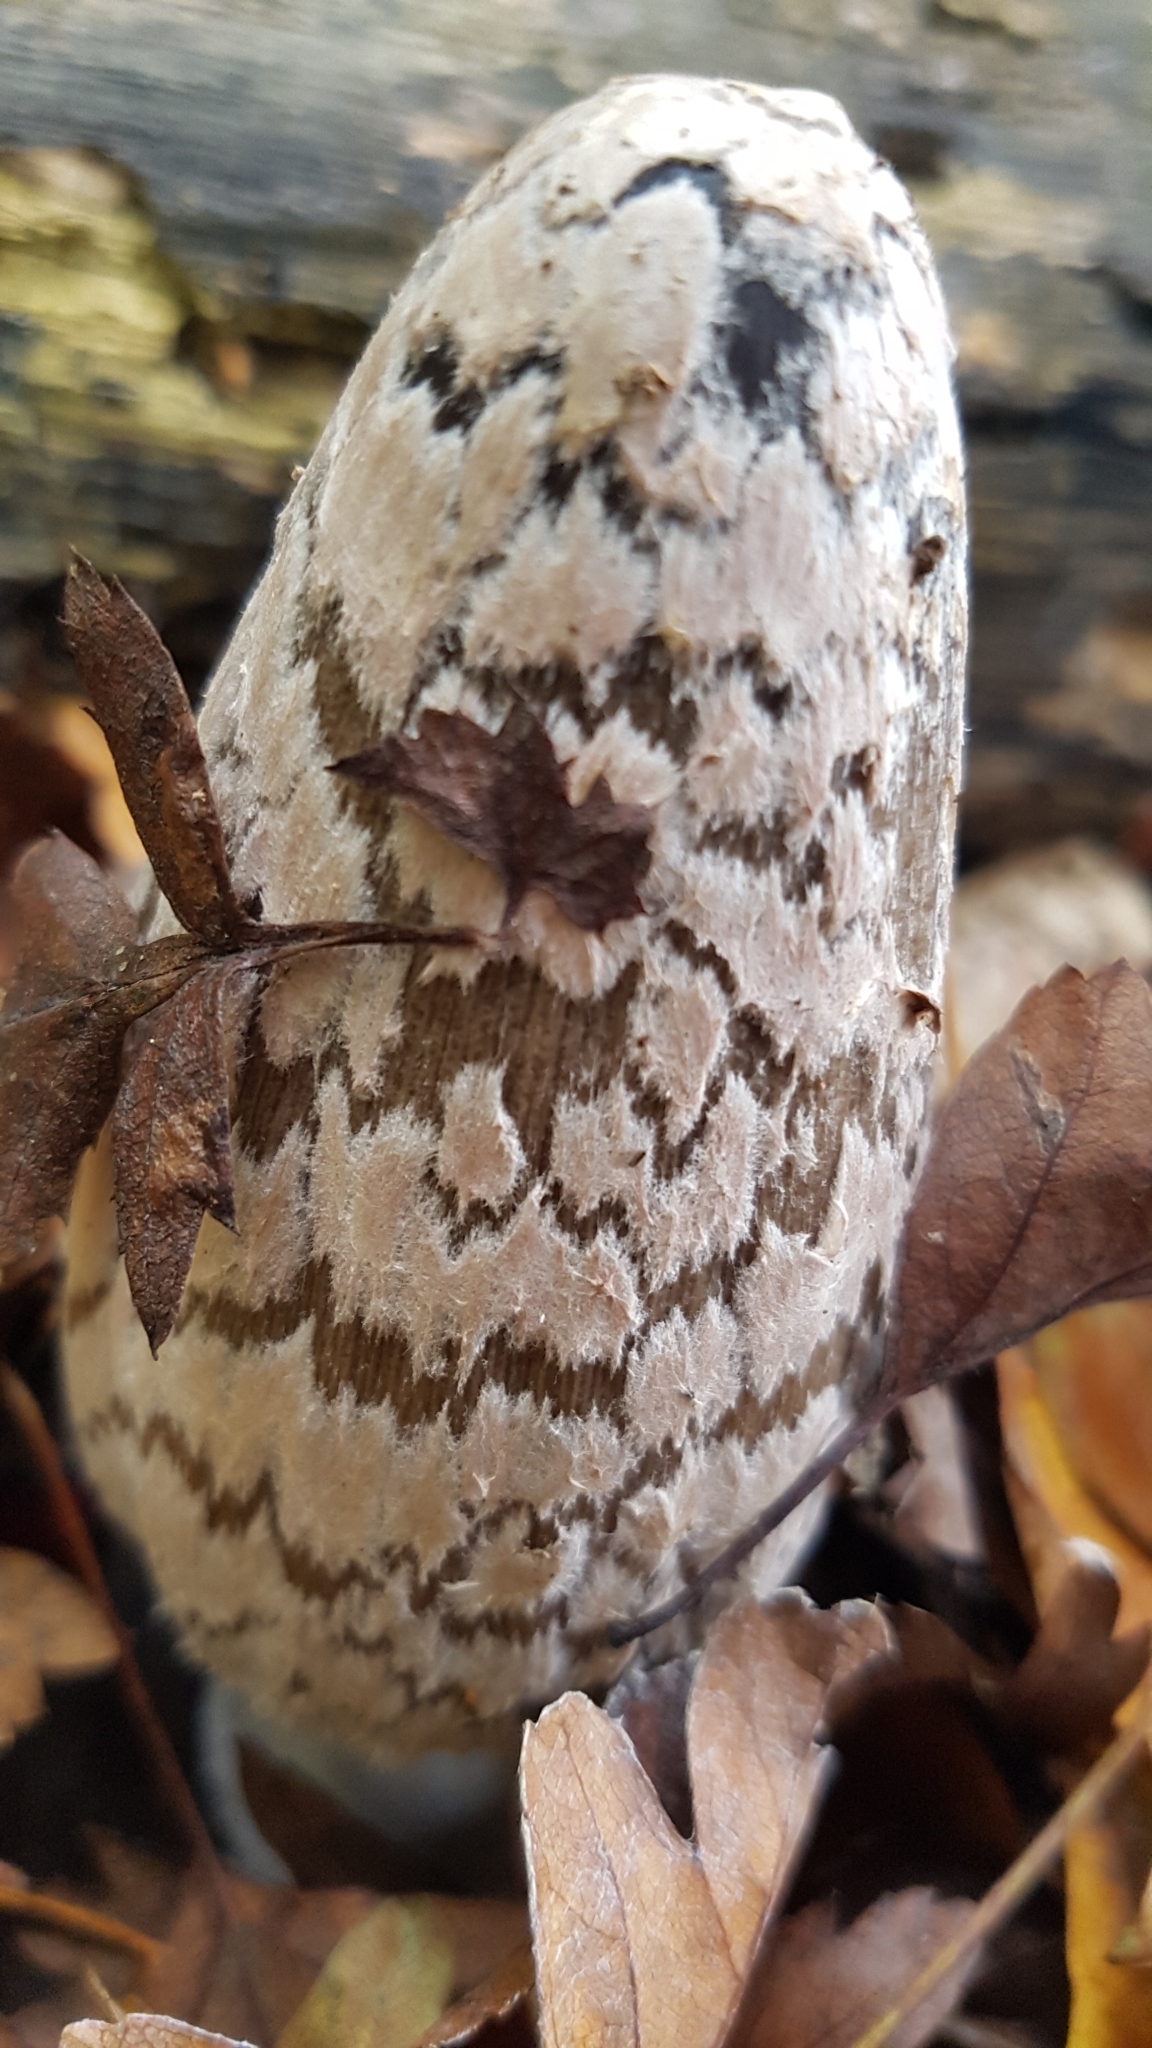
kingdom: Fungi
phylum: Basidiomycota
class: Agaricomycetes
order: Agaricales
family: Psathyrellaceae
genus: Coprinopsis
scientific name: Coprinopsis picacea
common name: Magpie inkcap
